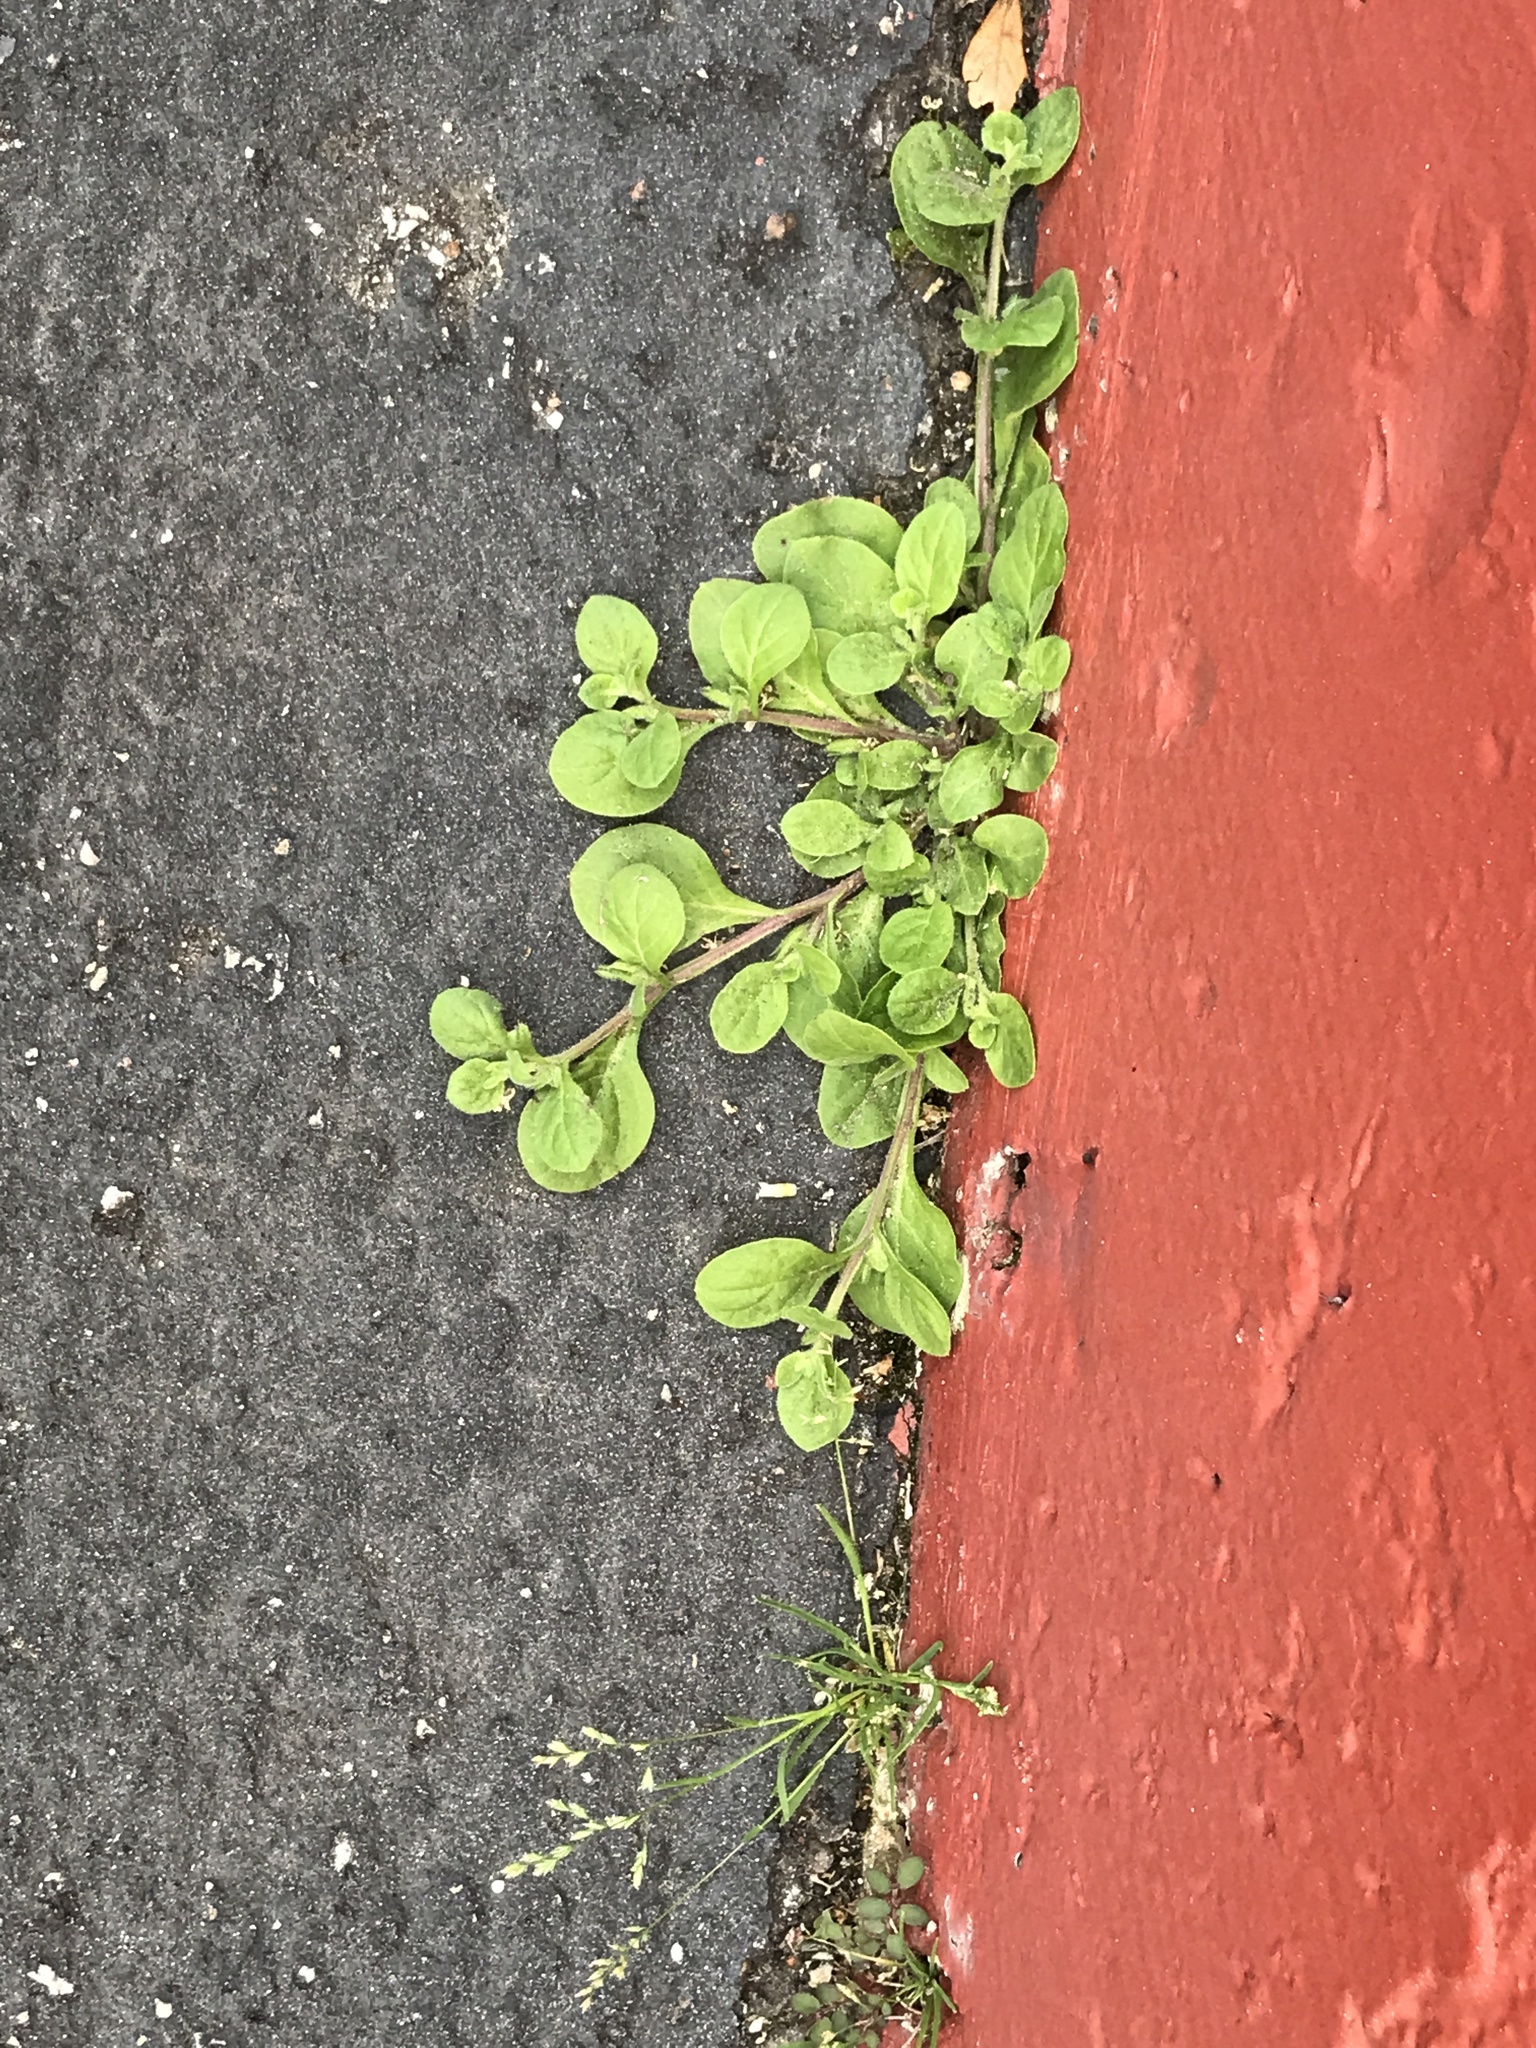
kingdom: Plantae
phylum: Tracheophyta
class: Magnoliopsida
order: Boraginales
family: Namaceae
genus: Nama
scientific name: Nama jamaicensis
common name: Jamaicanweed
